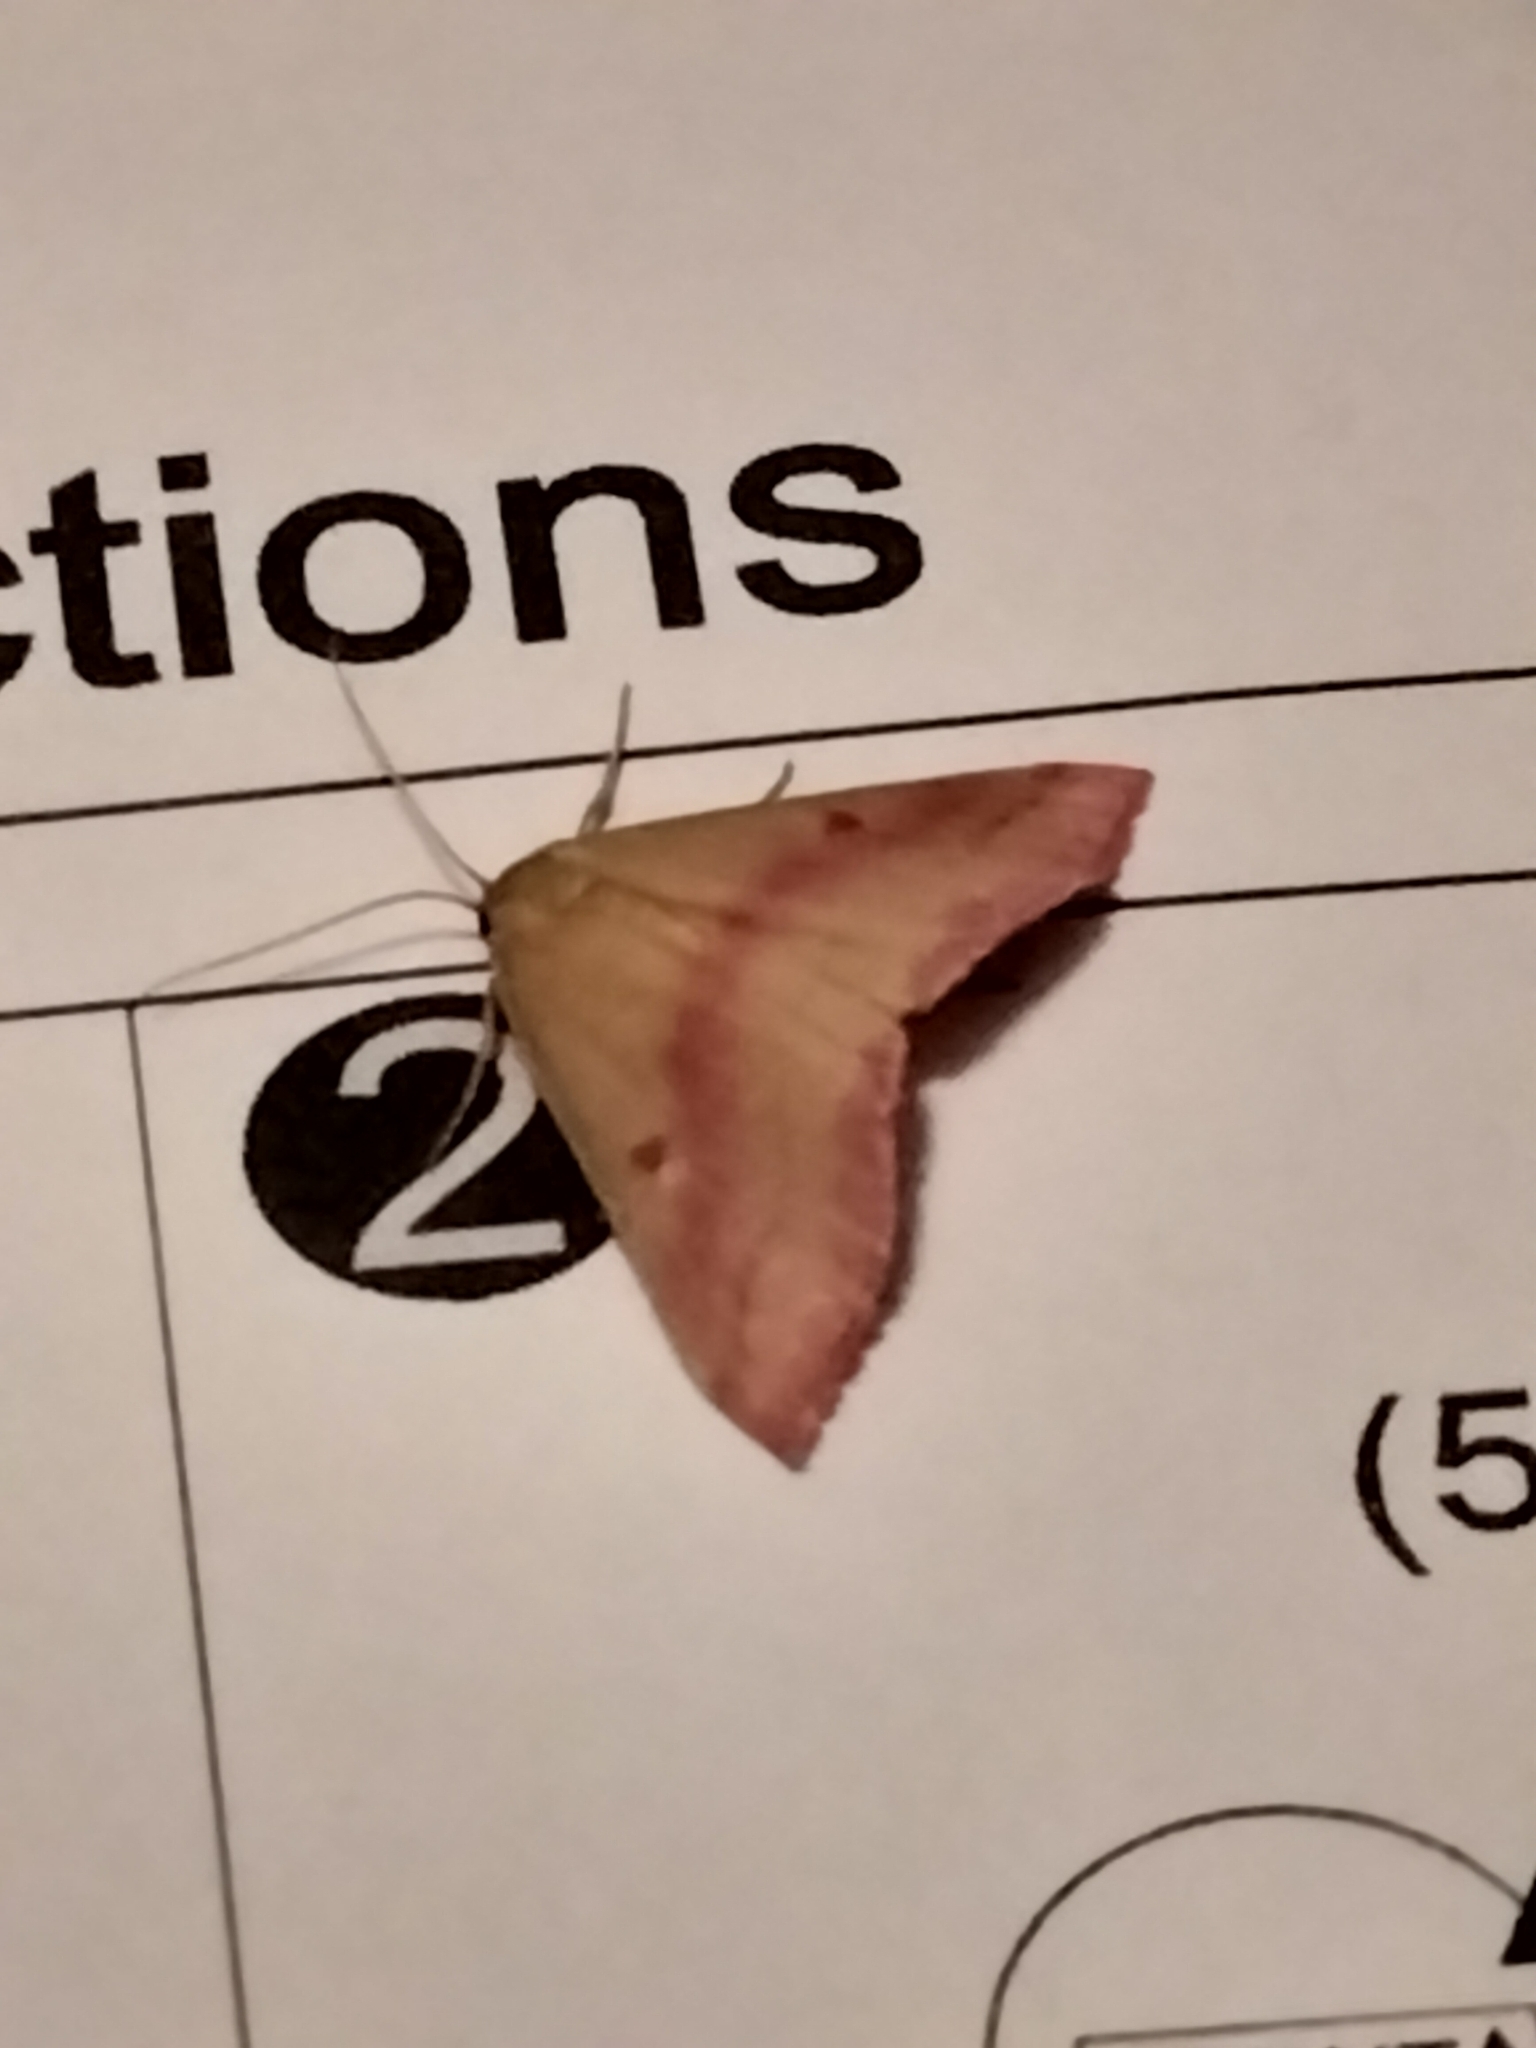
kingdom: Animalia
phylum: Arthropoda
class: Insecta
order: Lepidoptera
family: Geometridae
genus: Haematopis
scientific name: Haematopis grataria
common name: Chickweed geometer
